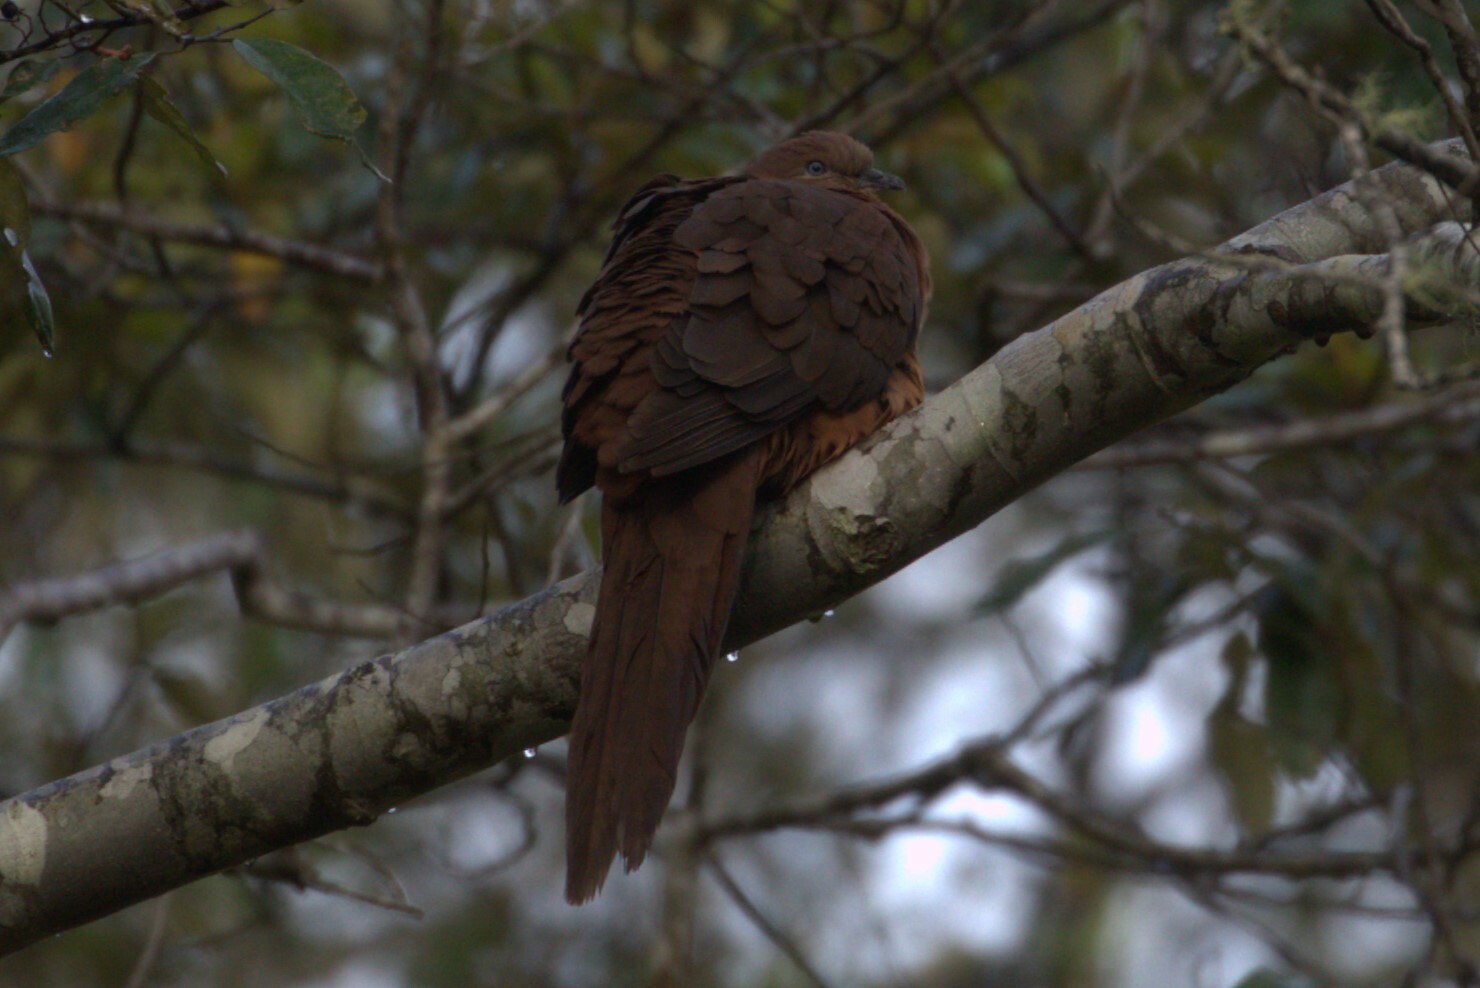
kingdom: Animalia
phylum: Chordata
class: Aves
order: Columbiformes
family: Columbidae
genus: Macropygia
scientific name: Macropygia phasianella
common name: Brown cuckoo-dove
